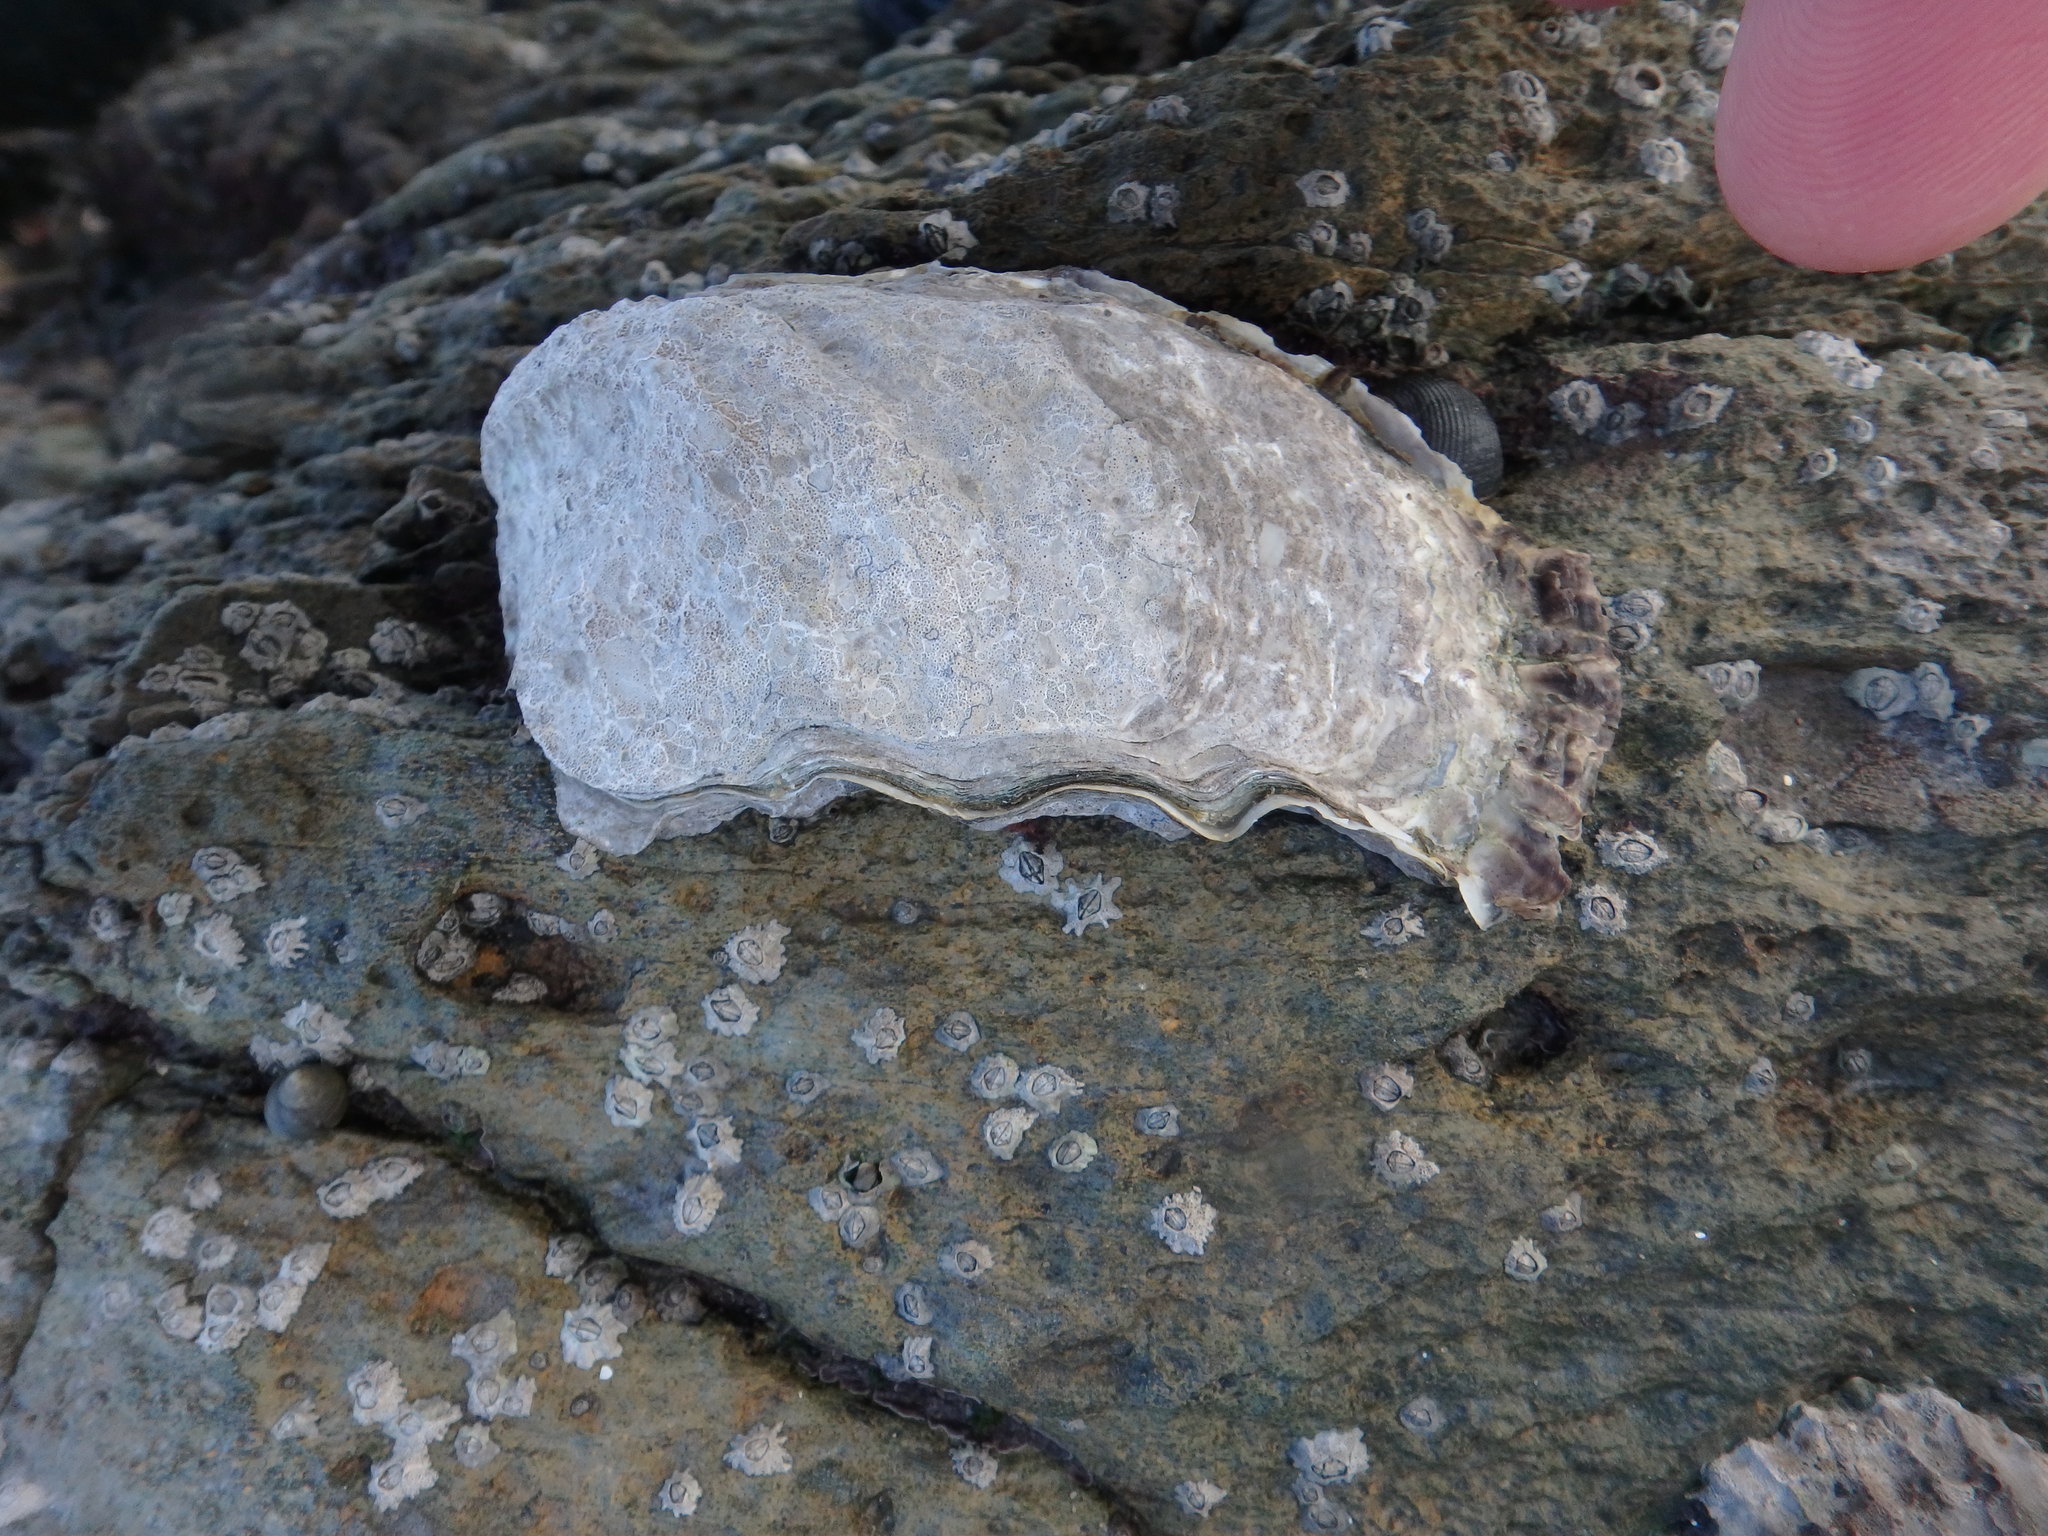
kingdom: Animalia
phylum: Mollusca
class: Bivalvia
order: Ostreida
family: Ostreidae
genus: Magallana
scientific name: Magallana gigas
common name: Pacific oyster
